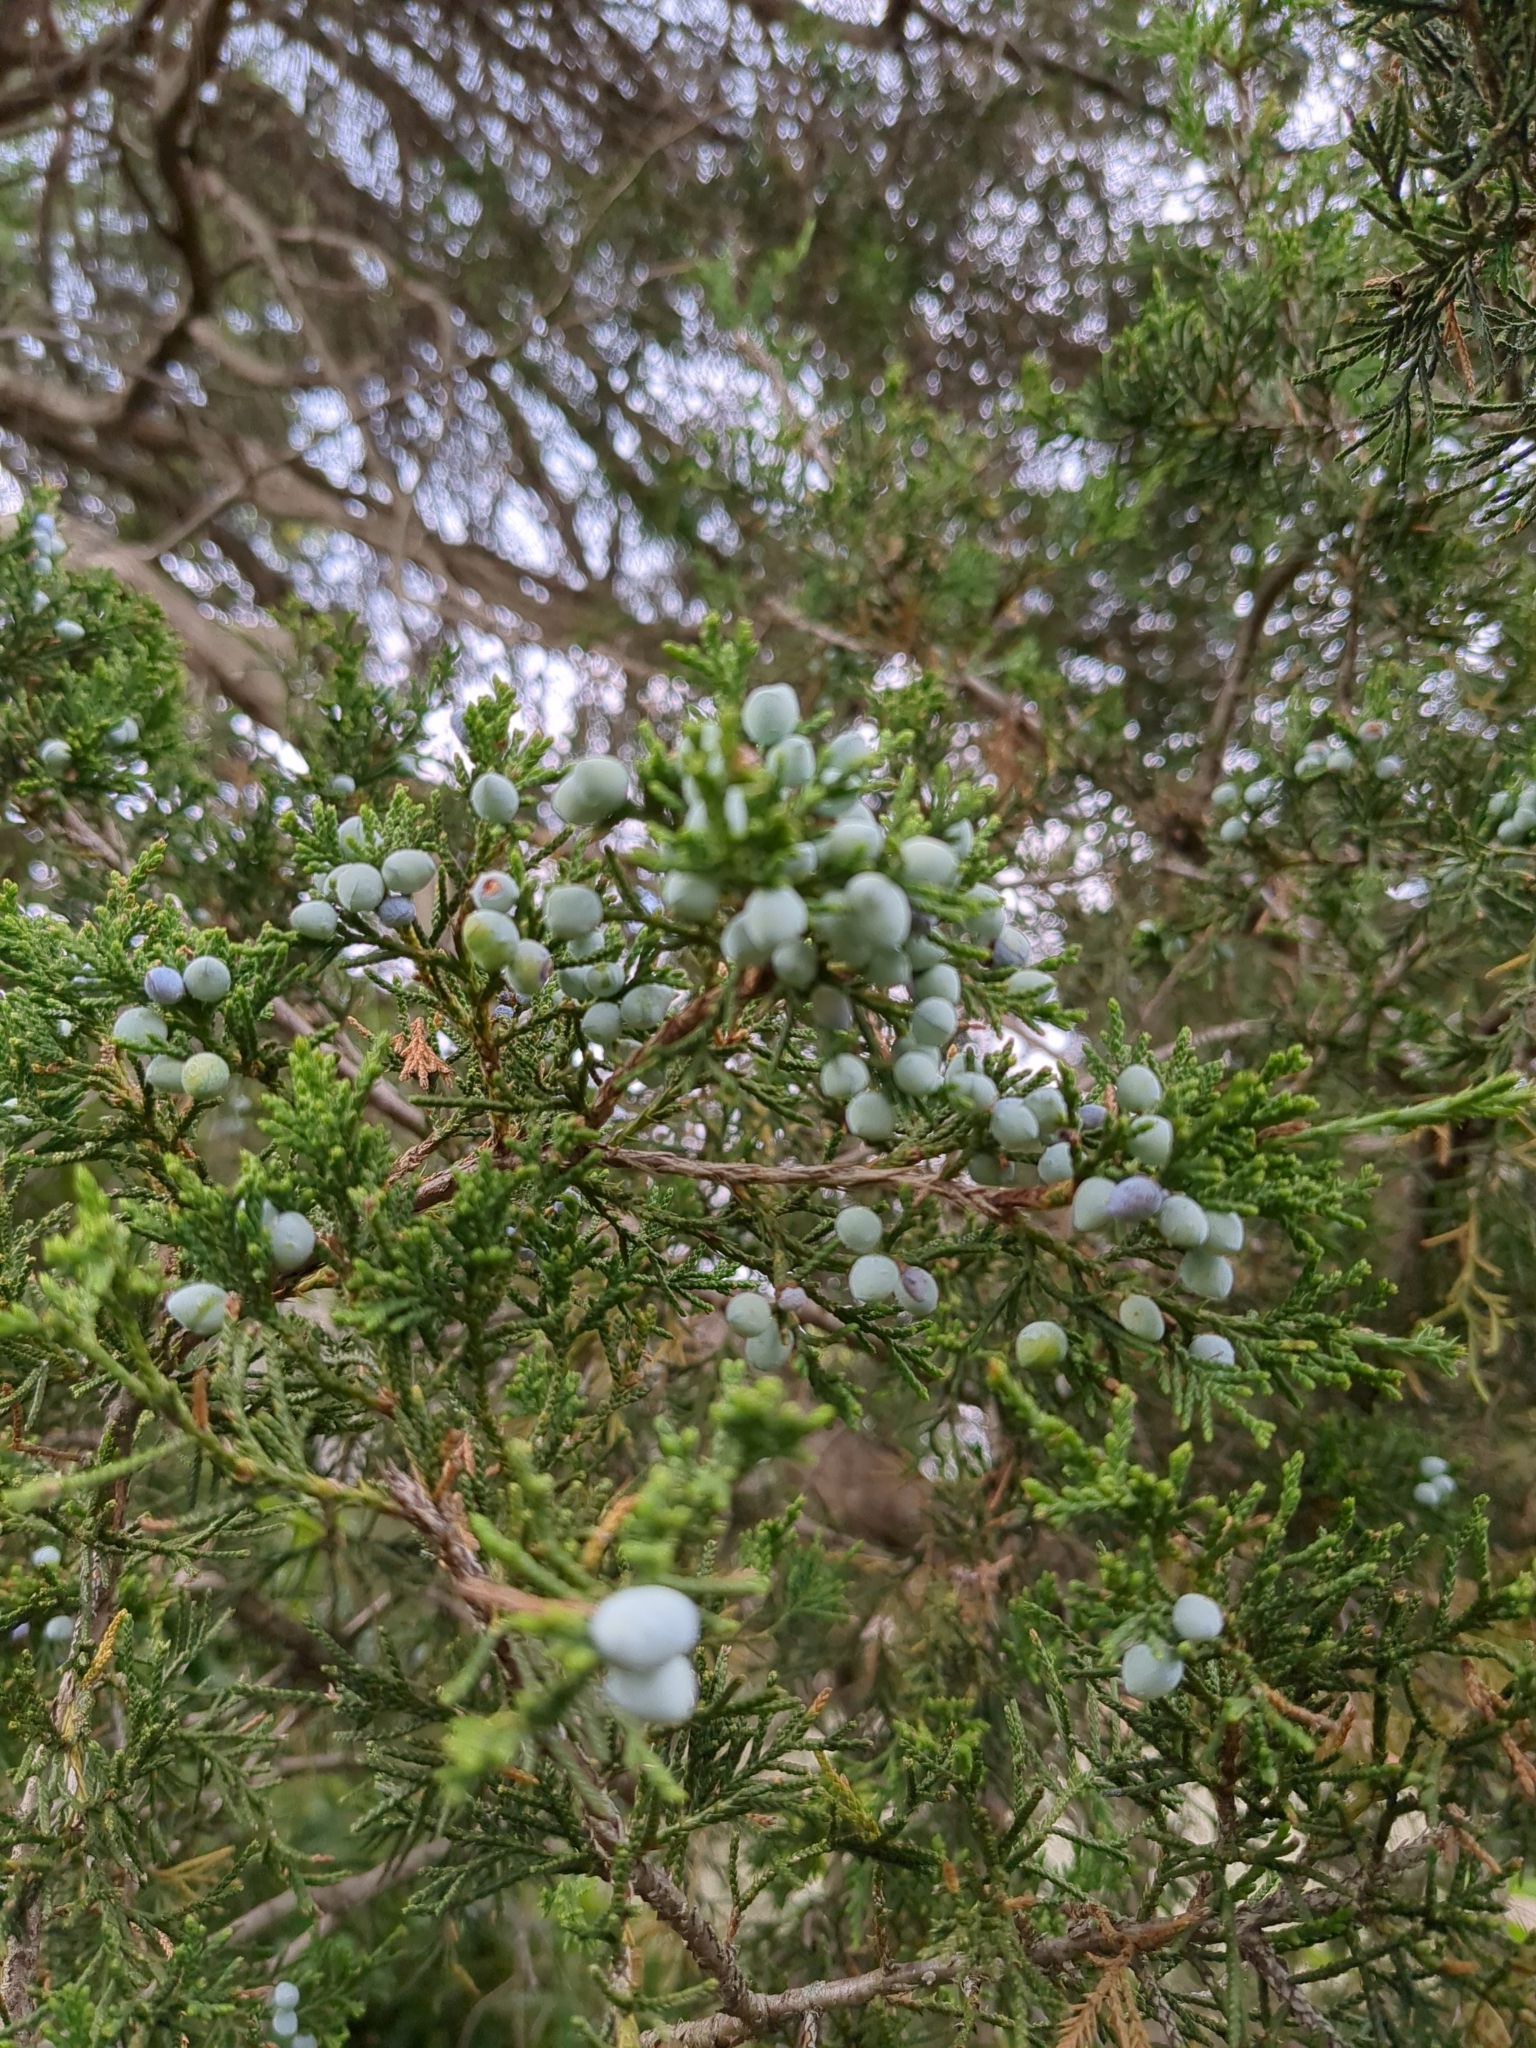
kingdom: Plantae
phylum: Tracheophyta
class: Pinopsida
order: Pinales
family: Cupressaceae
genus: Juniperus
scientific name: Juniperus virginiana
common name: Red juniper
